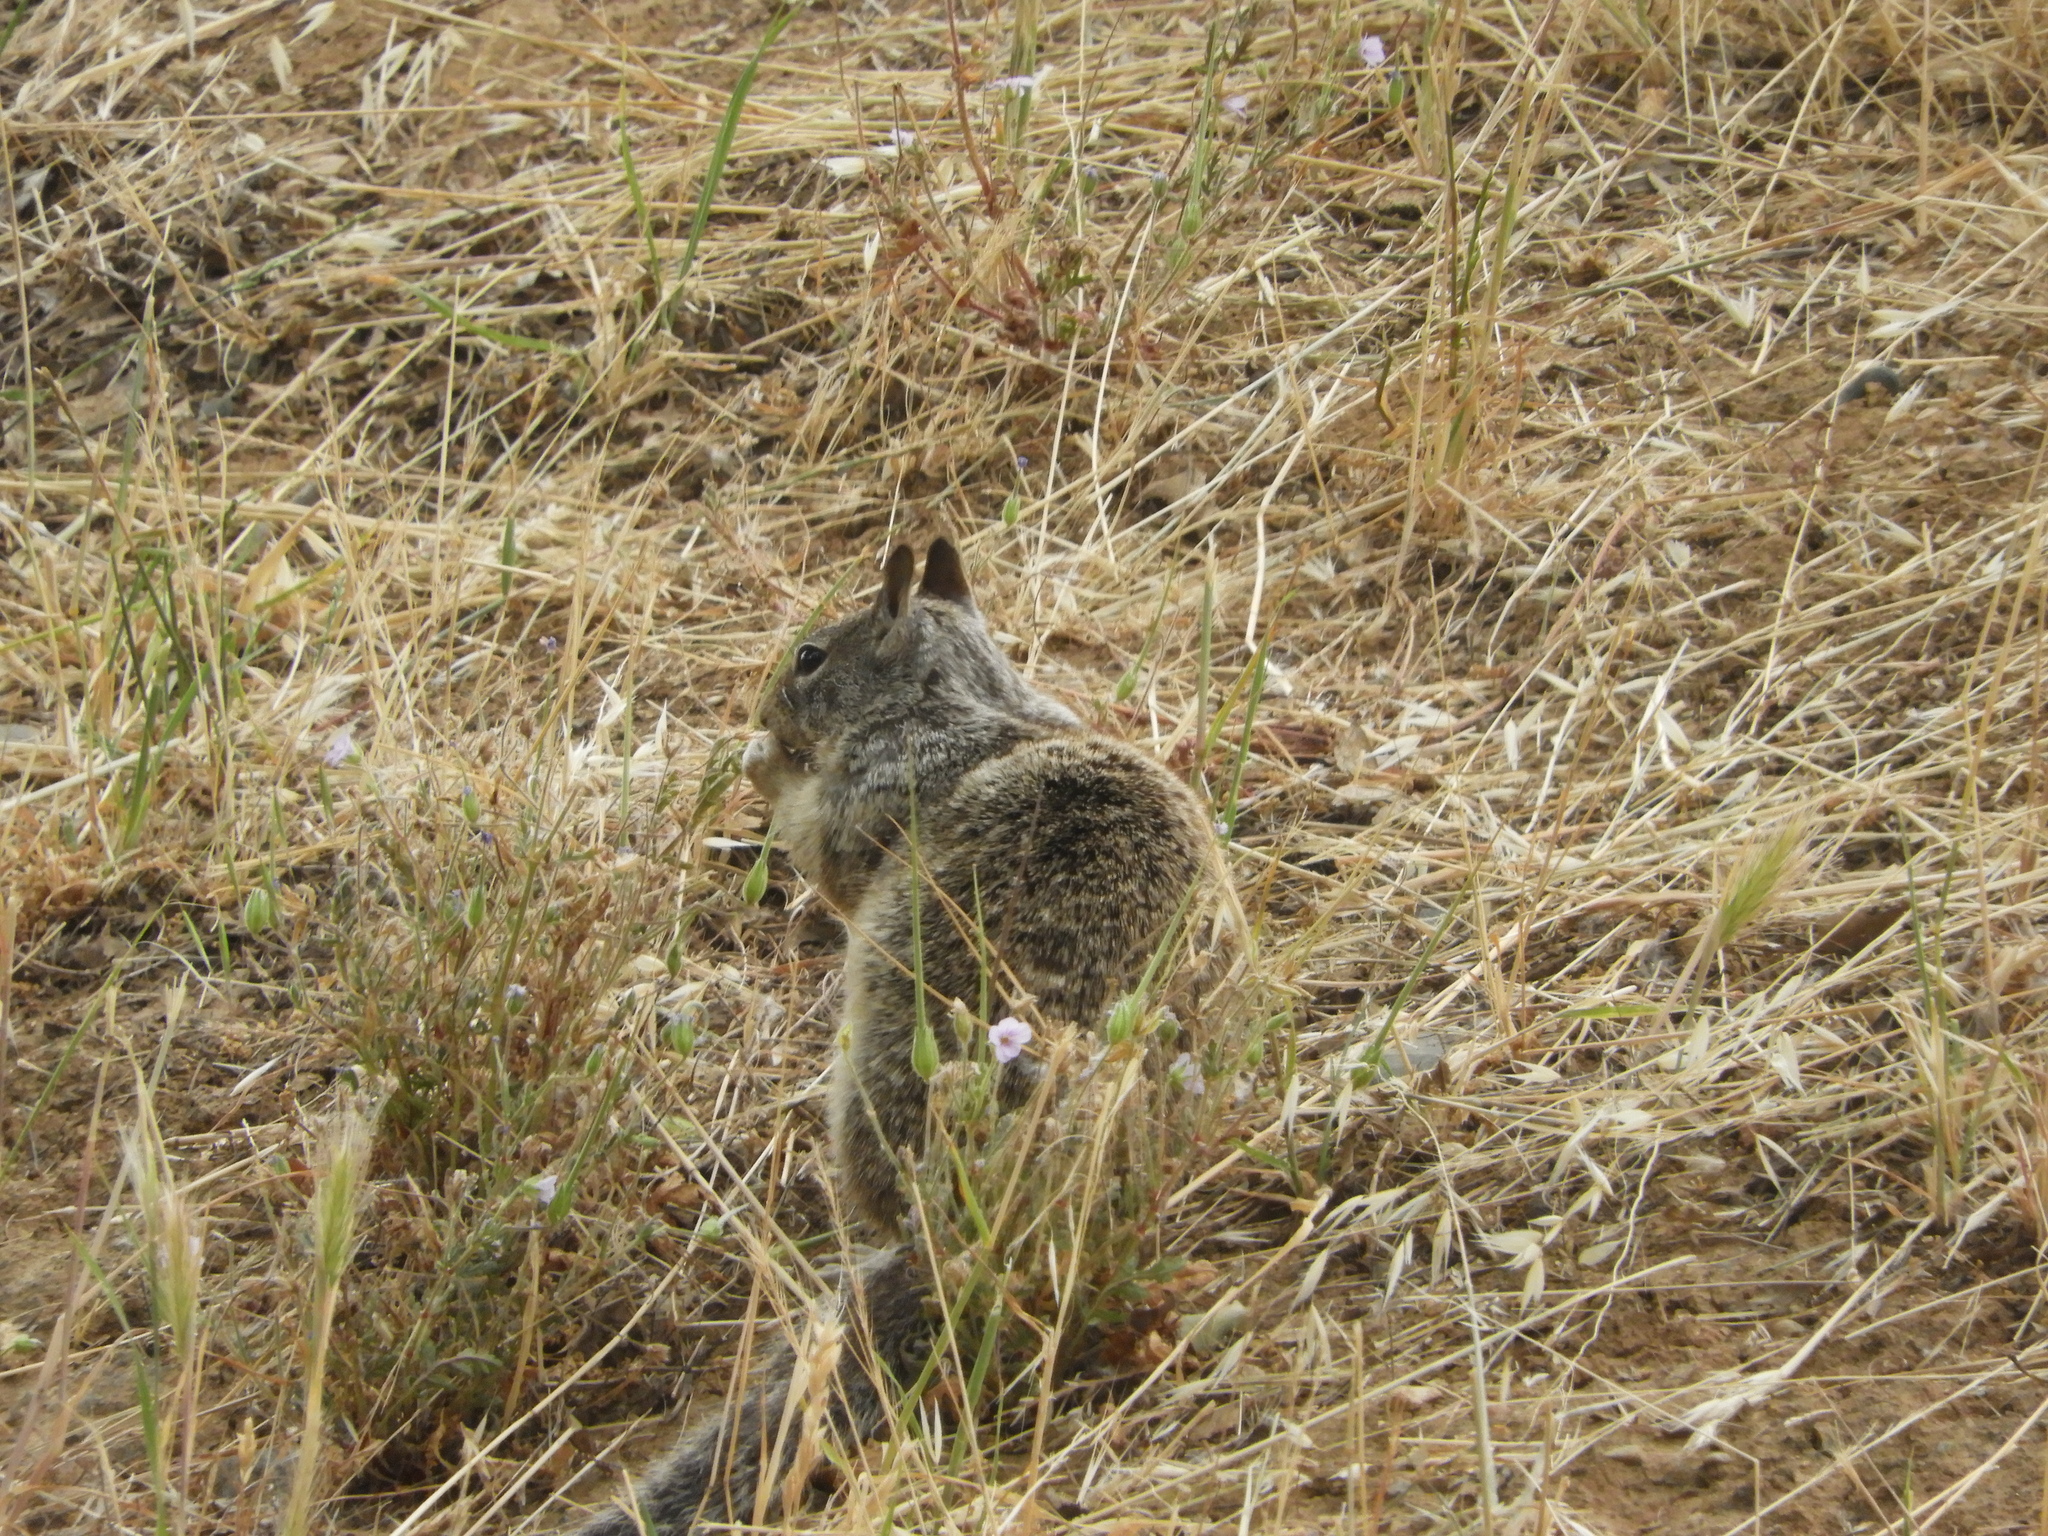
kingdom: Animalia
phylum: Chordata
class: Mammalia
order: Rodentia
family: Sciuridae
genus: Otospermophilus
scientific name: Otospermophilus beecheyi
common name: California ground squirrel
